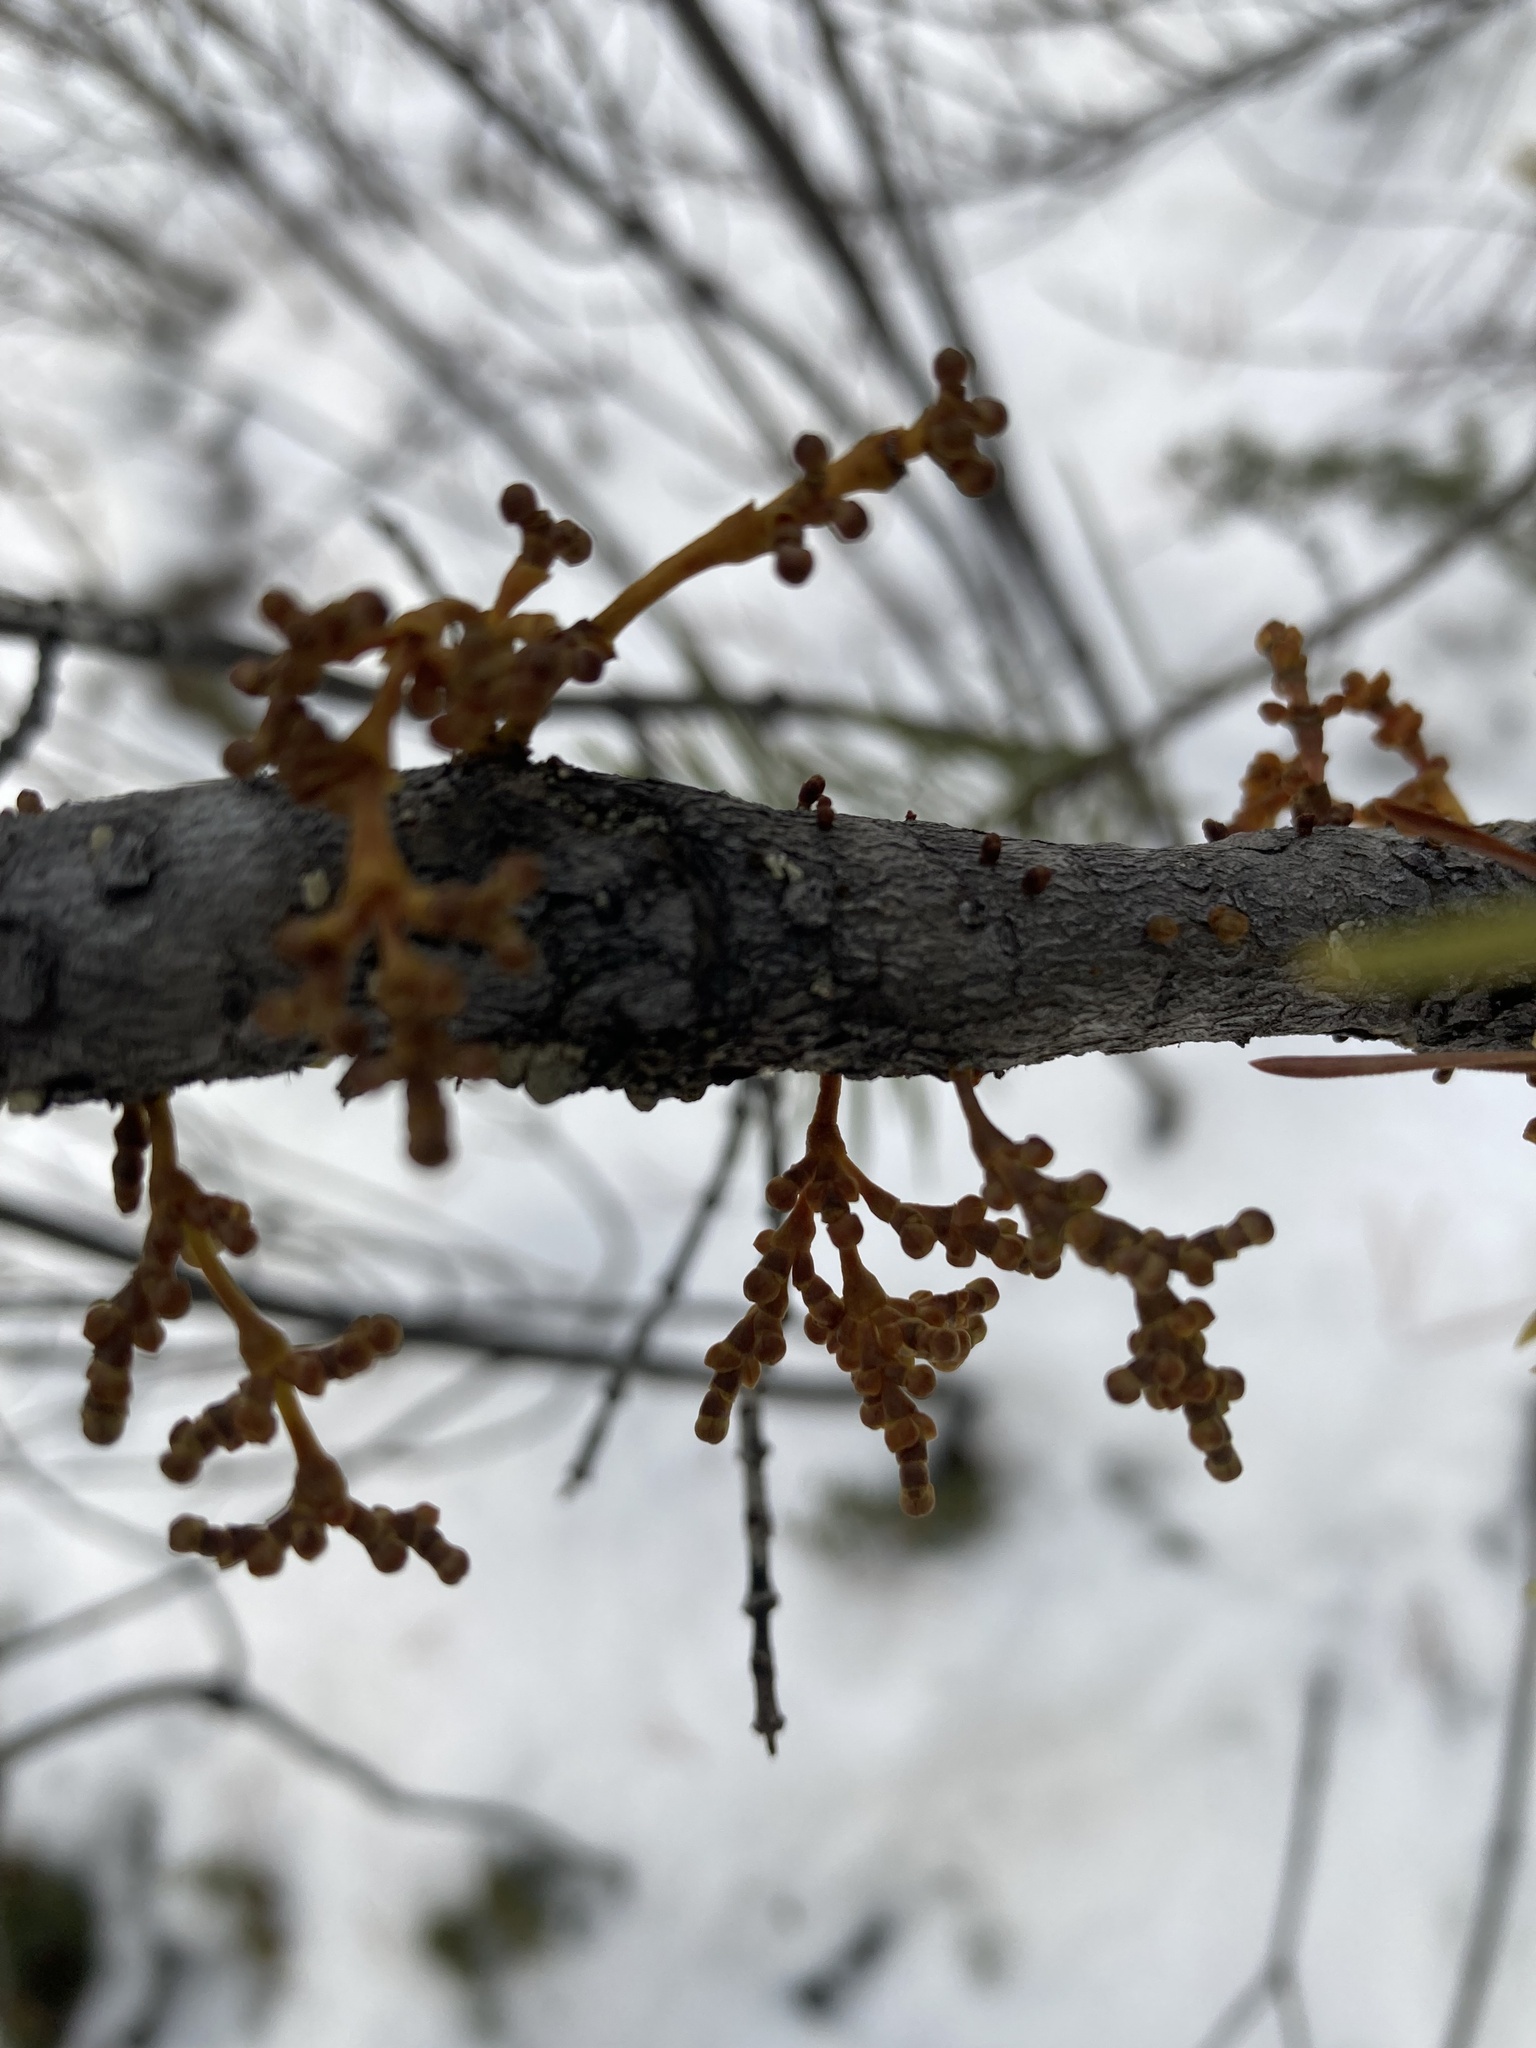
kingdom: Plantae
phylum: Tracheophyta
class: Magnoliopsida
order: Santalales
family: Viscaceae
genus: Arceuthobium
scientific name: Arceuthobium americanum
